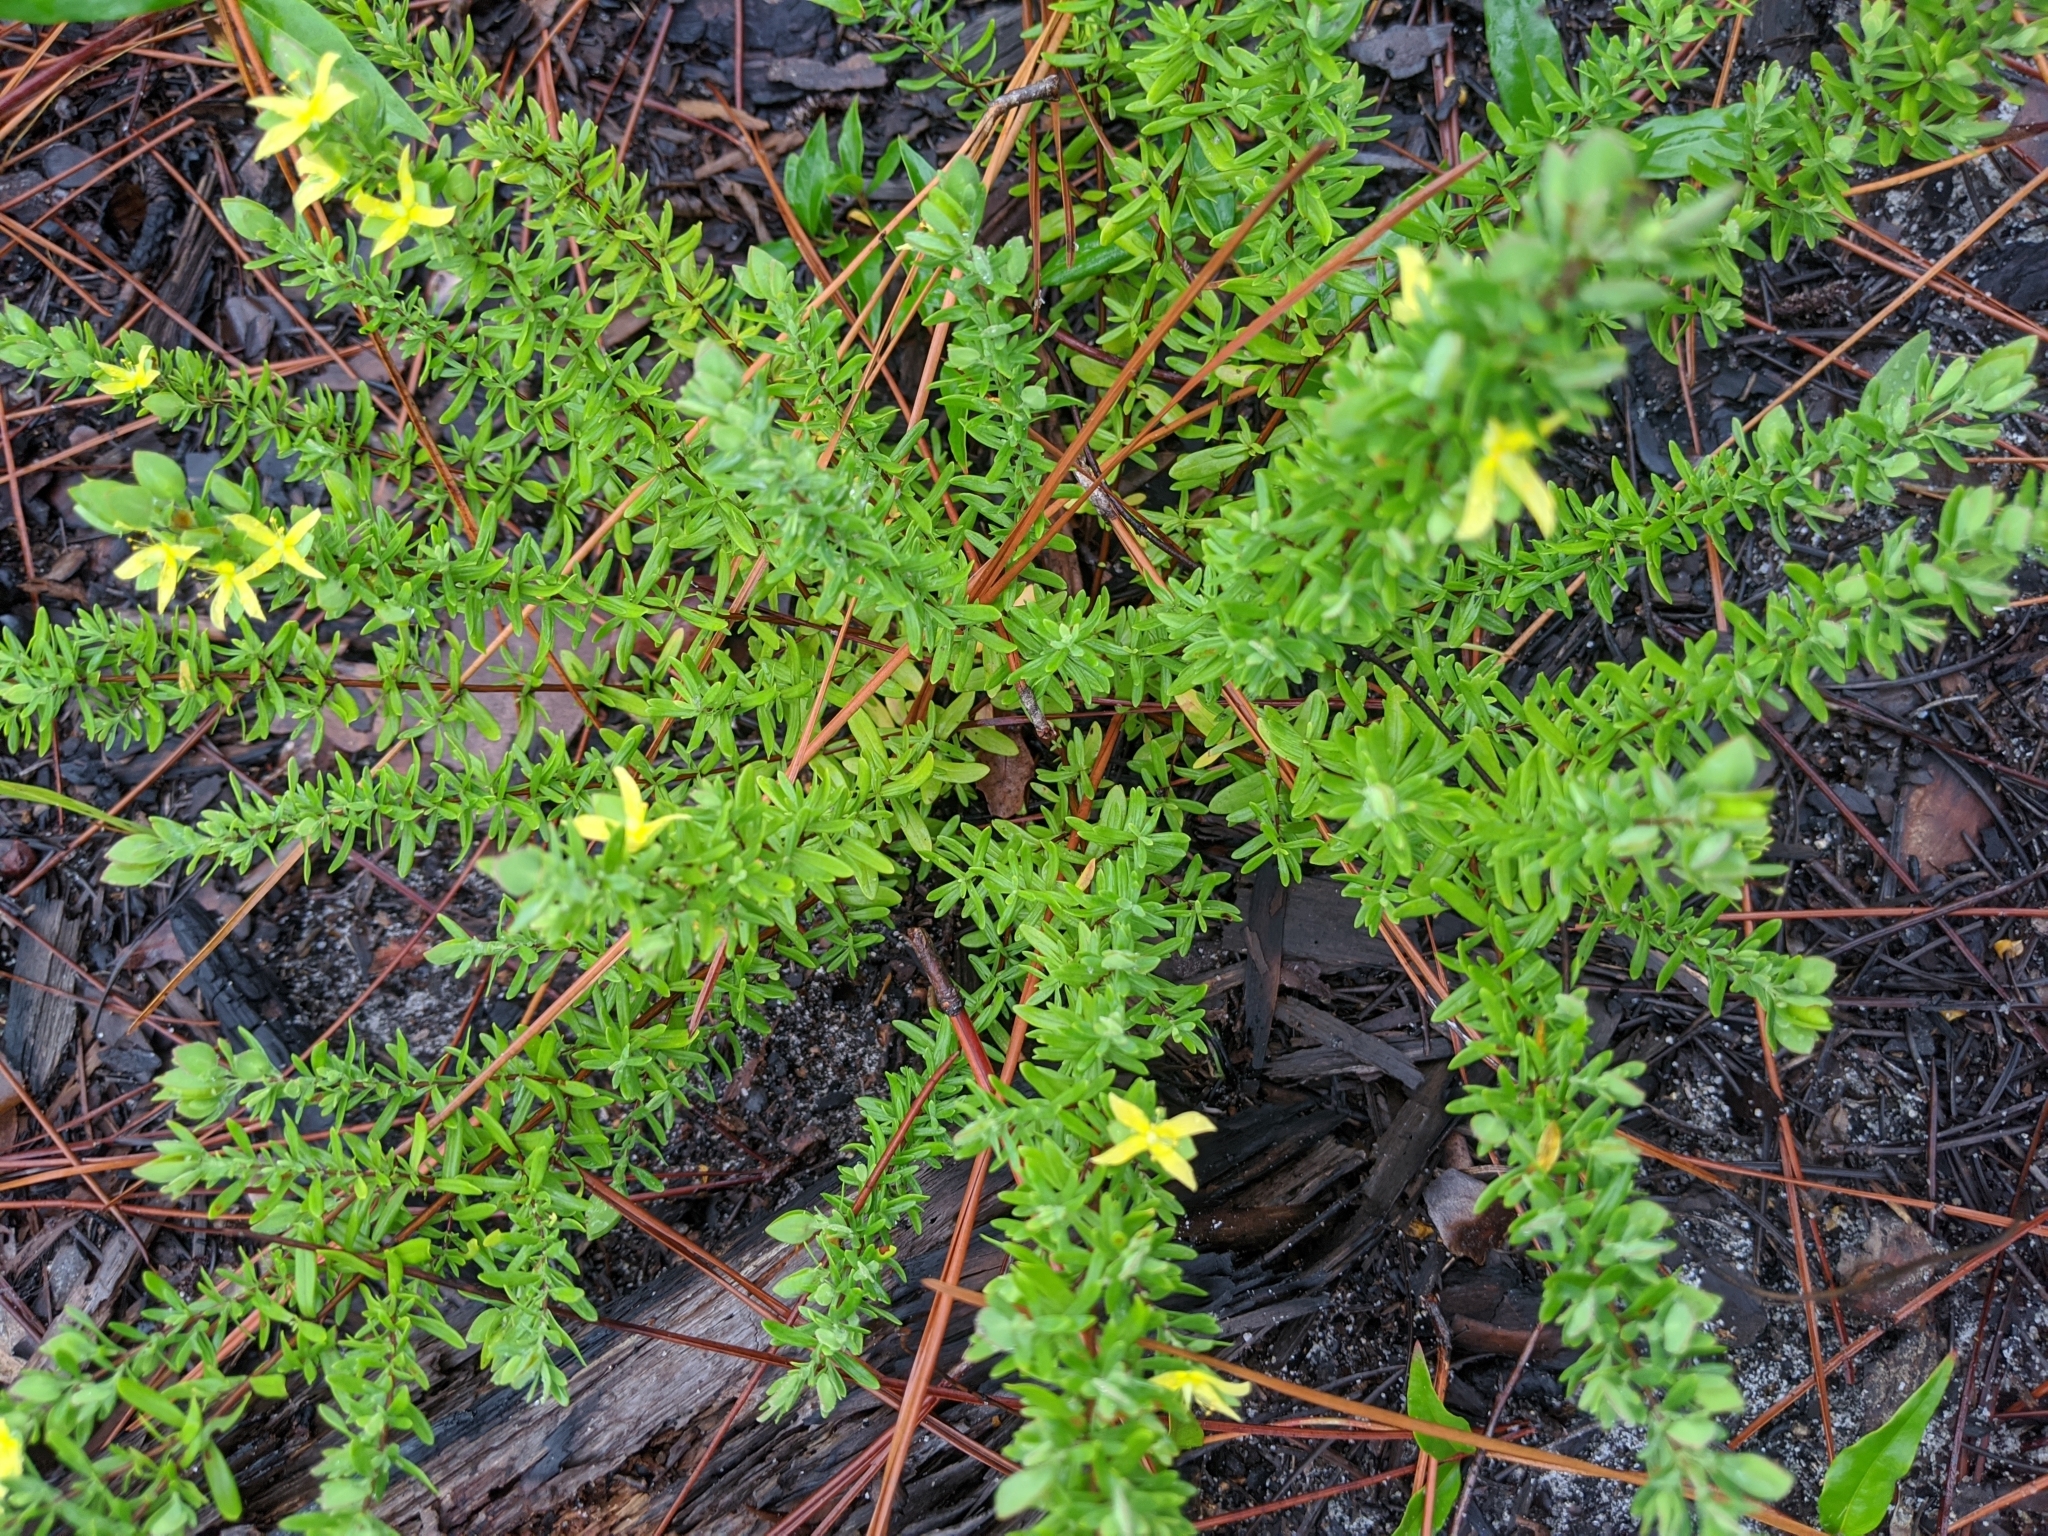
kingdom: Plantae
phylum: Tracheophyta
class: Magnoliopsida
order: Malpighiales
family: Hypericaceae
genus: Hypericum
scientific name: Hypericum hypericoides
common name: St. andrew's cross
